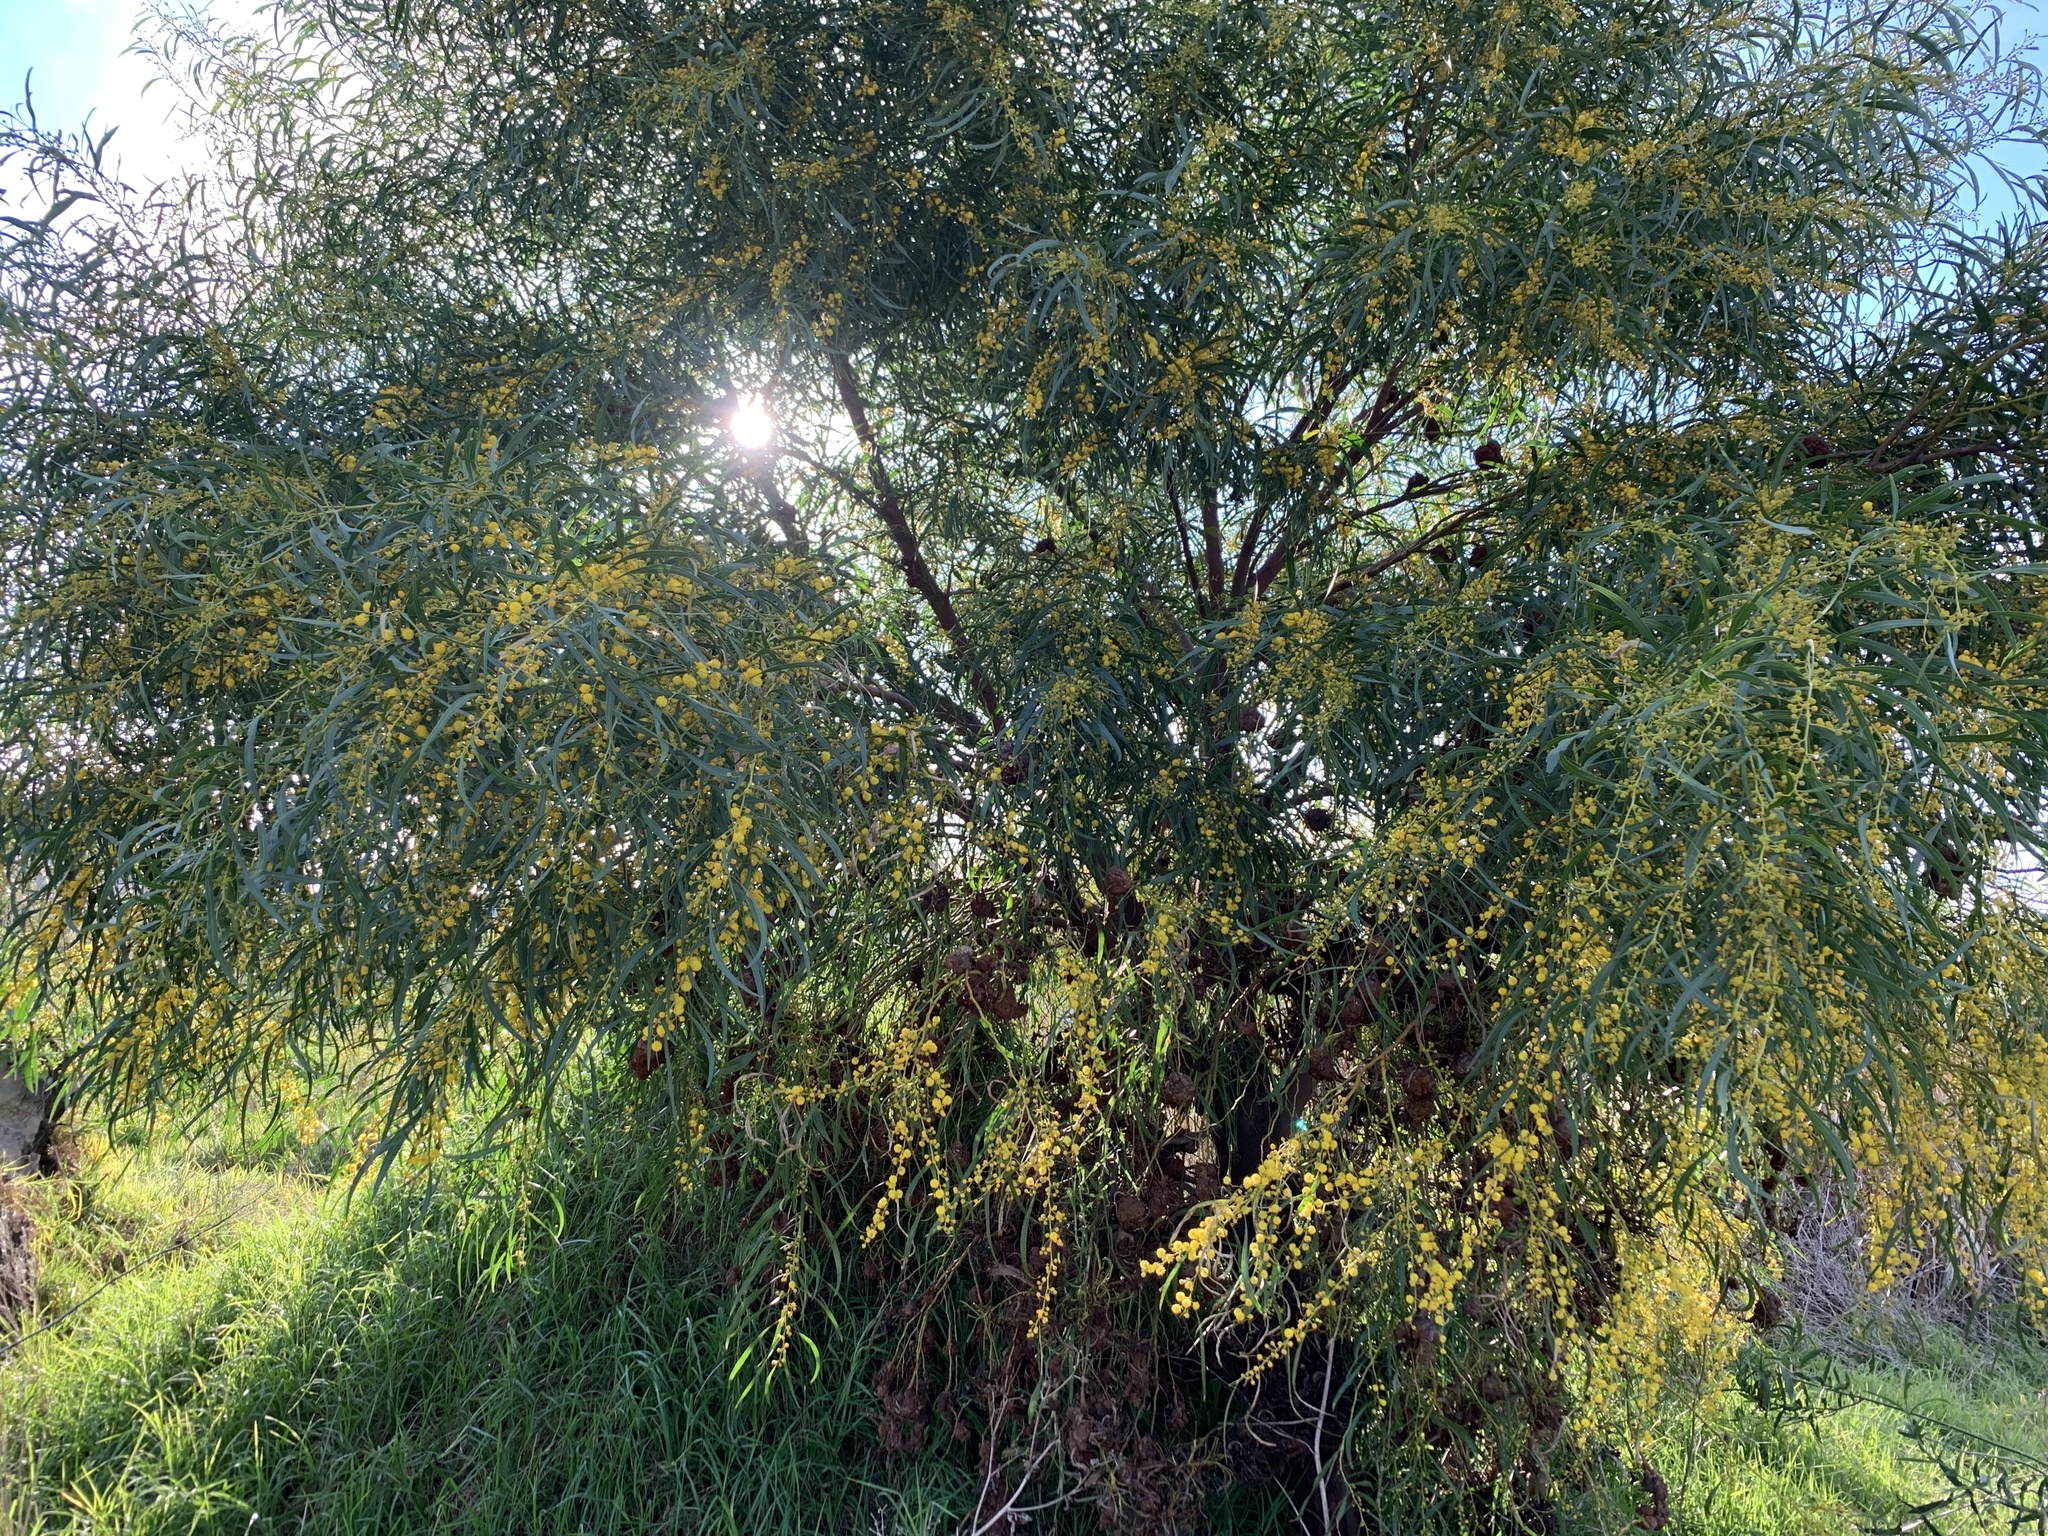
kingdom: Plantae
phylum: Tracheophyta
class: Magnoliopsida
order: Fabales
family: Fabaceae
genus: Acacia
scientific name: Acacia saligna
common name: Orange wattle
